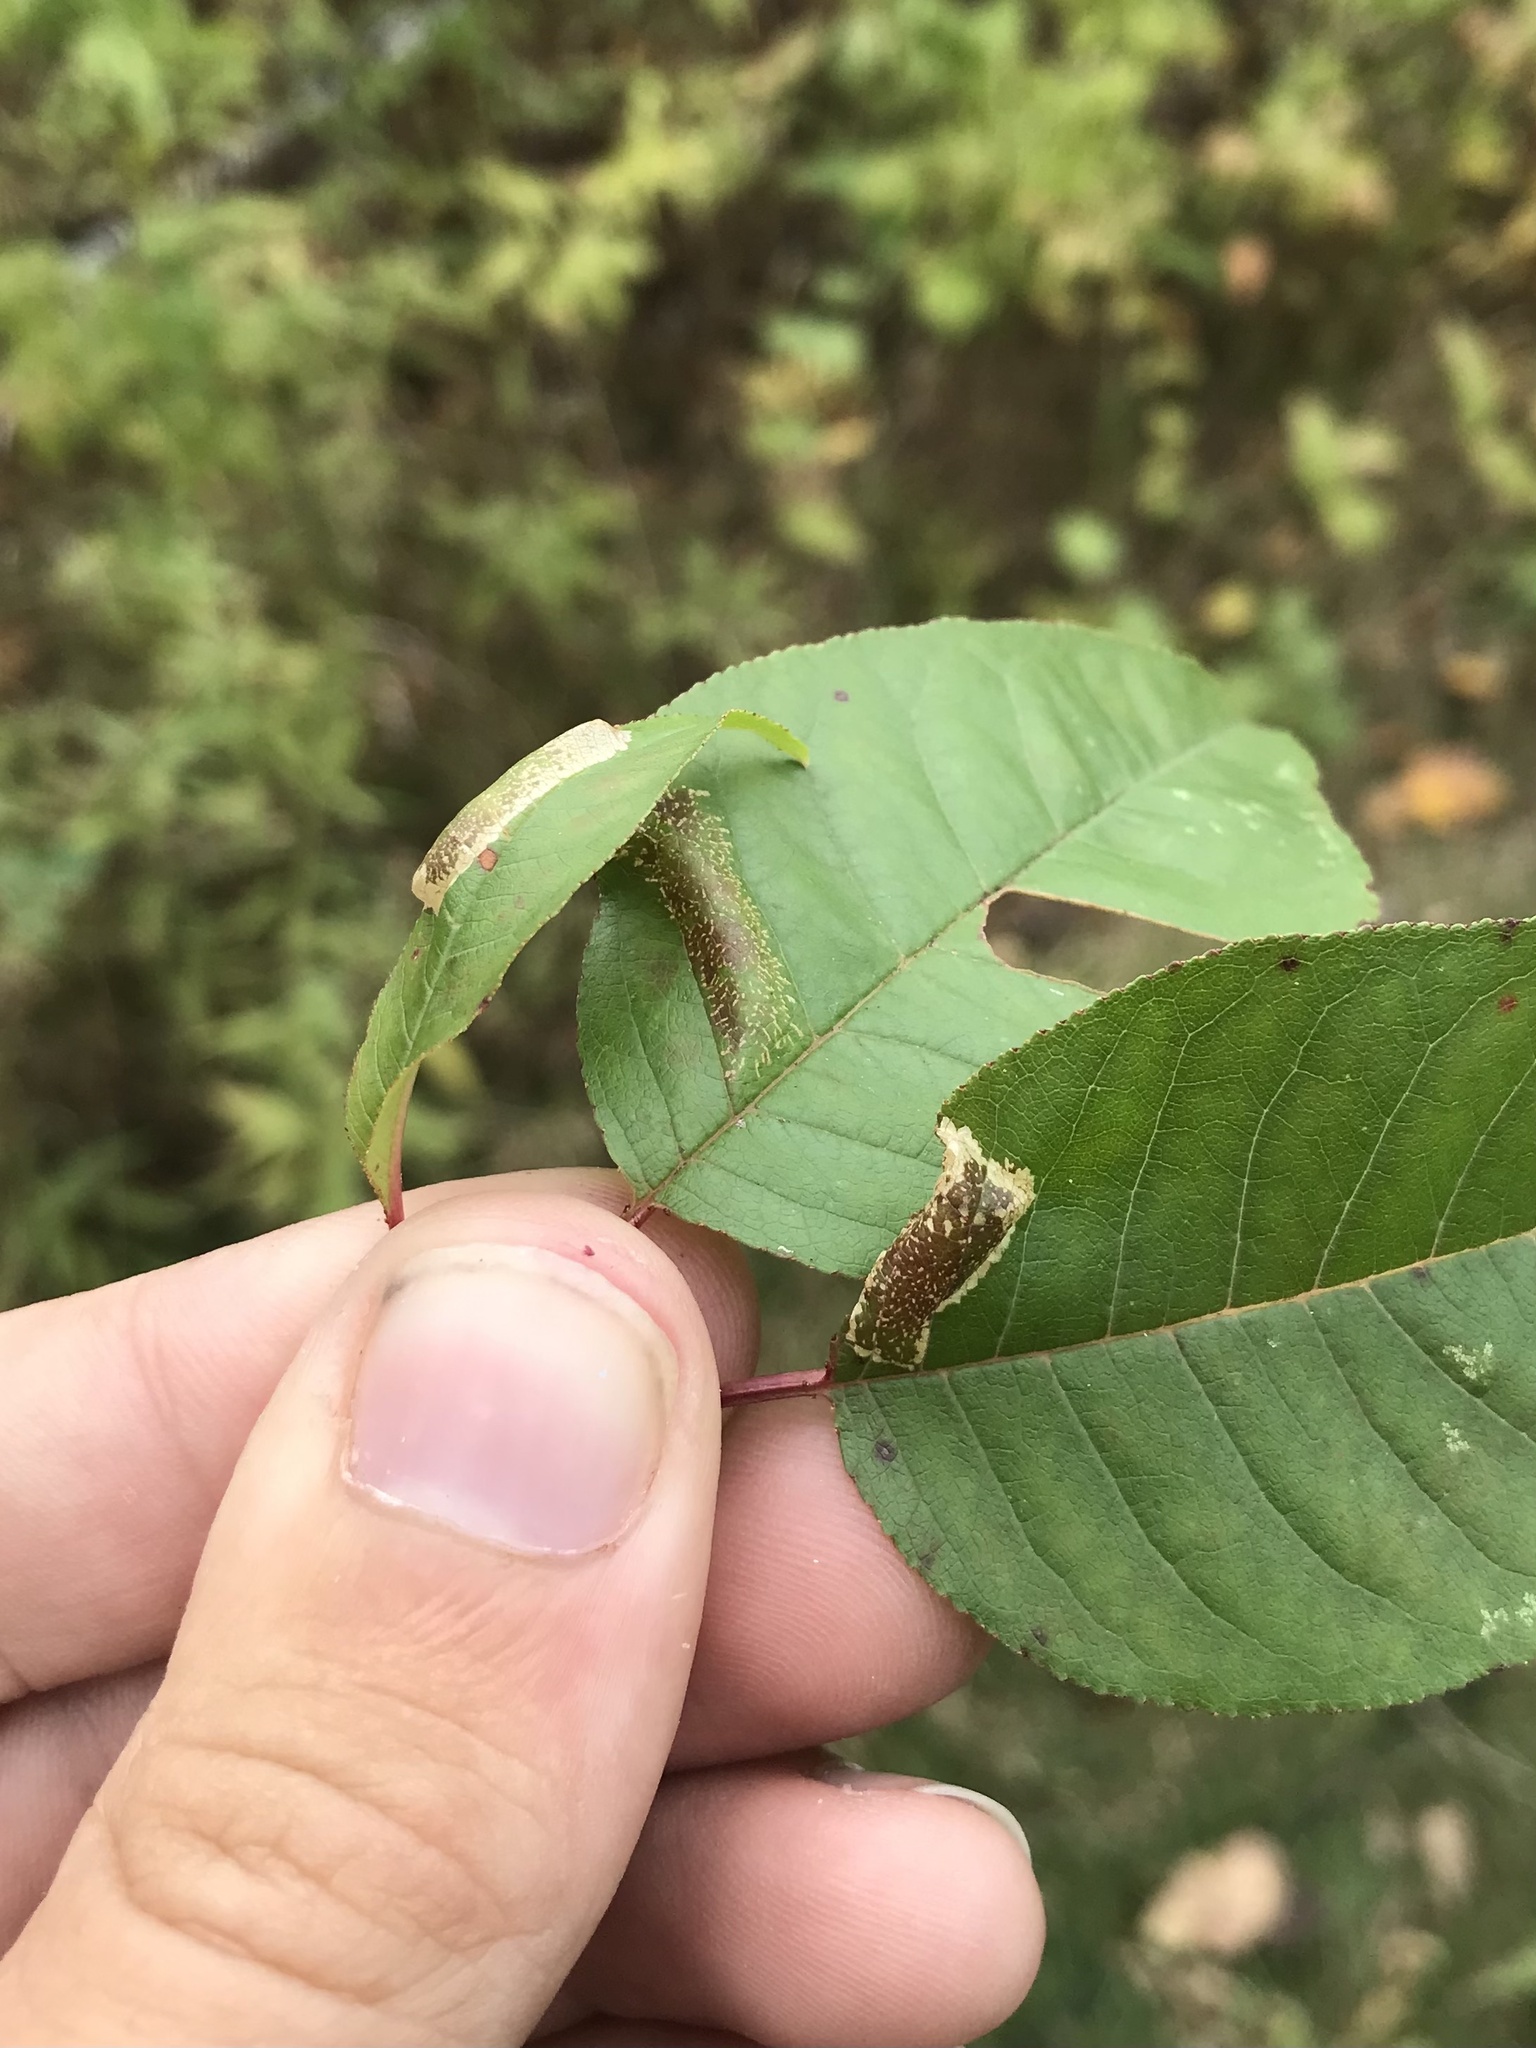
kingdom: Animalia
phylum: Arthropoda
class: Insecta
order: Lepidoptera
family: Gracillariidae
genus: Phyllonorycter
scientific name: Phyllonorycter crataegella
